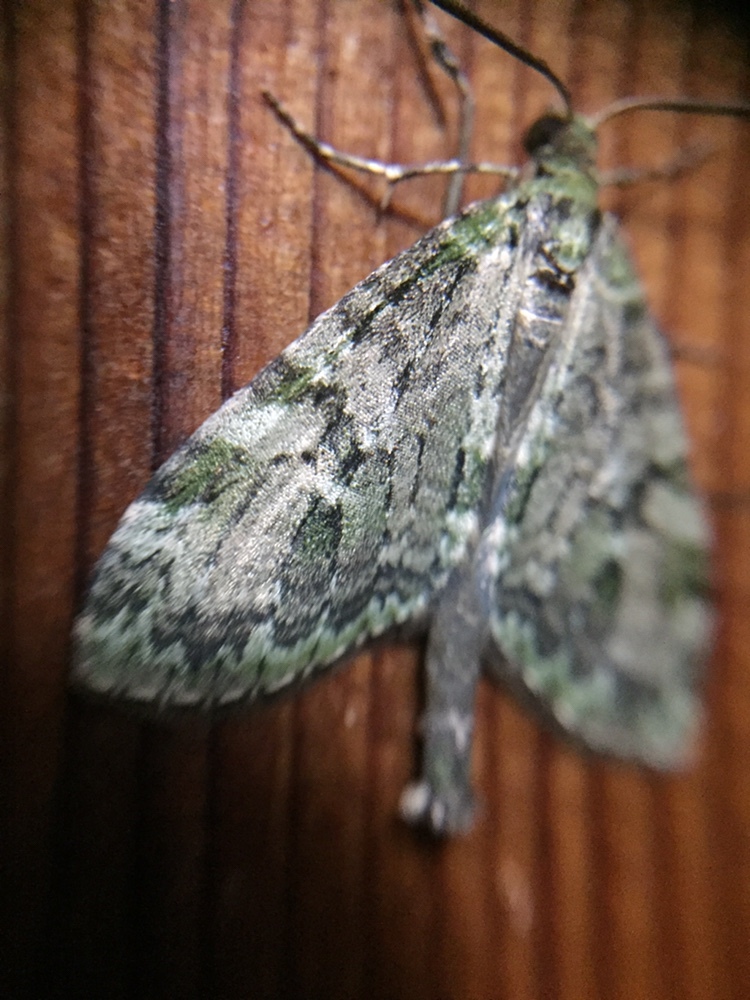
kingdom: Animalia
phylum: Arthropoda
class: Insecta
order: Lepidoptera
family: Geometridae
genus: Tatosoma
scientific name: Tatosoma topea
